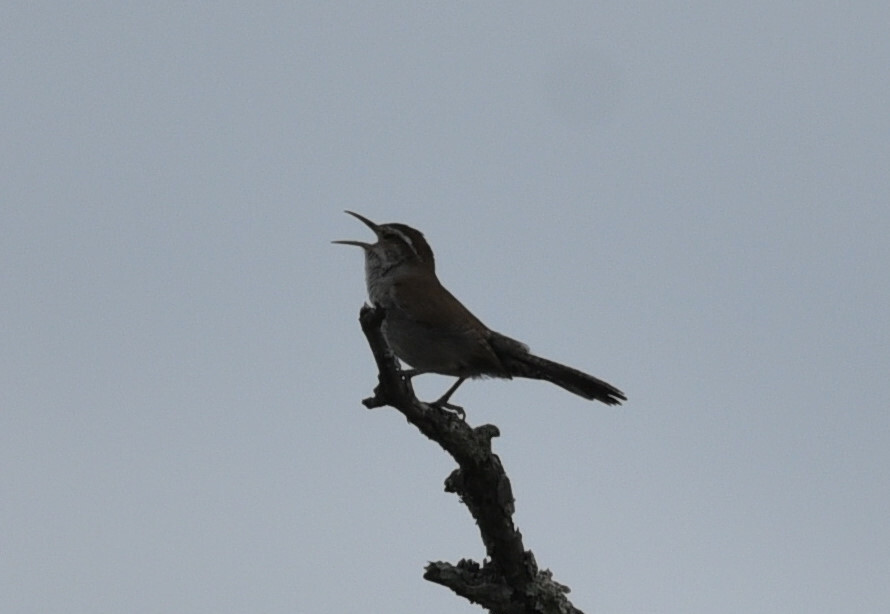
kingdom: Animalia
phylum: Chordata
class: Aves
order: Passeriformes
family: Troglodytidae
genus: Thryomanes
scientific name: Thryomanes bewickii
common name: Bewick's wren
